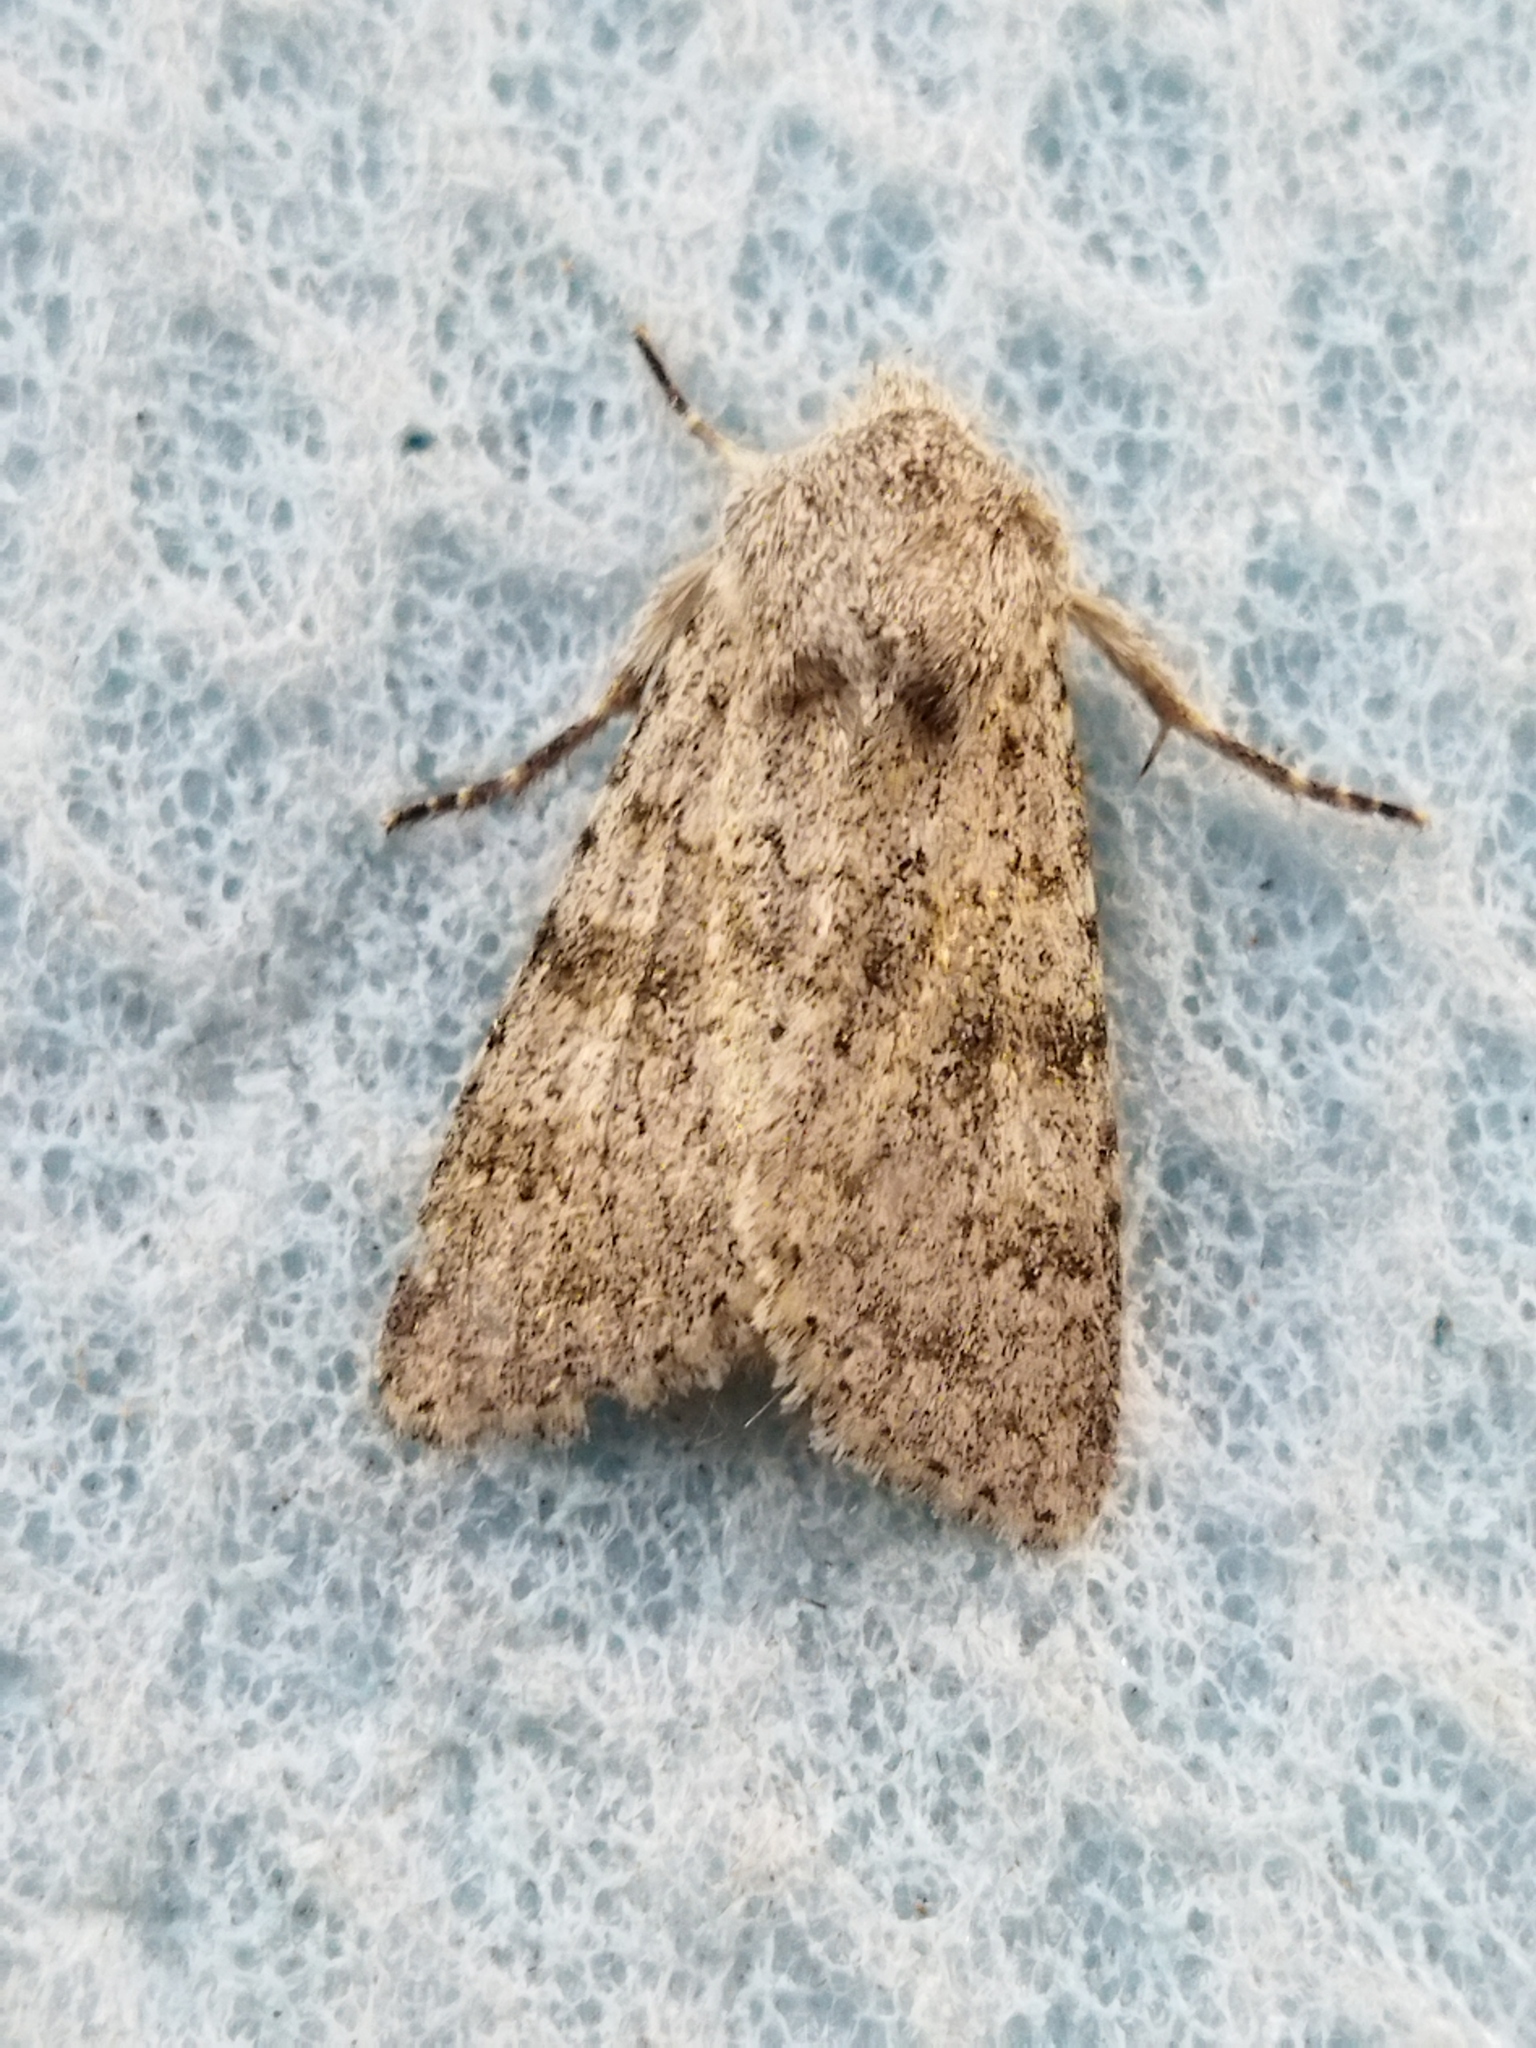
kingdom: Animalia
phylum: Arthropoda
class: Insecta
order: Lepidoptera
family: Noctuidae
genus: Aporophyla
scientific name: Aporophyla canescens
